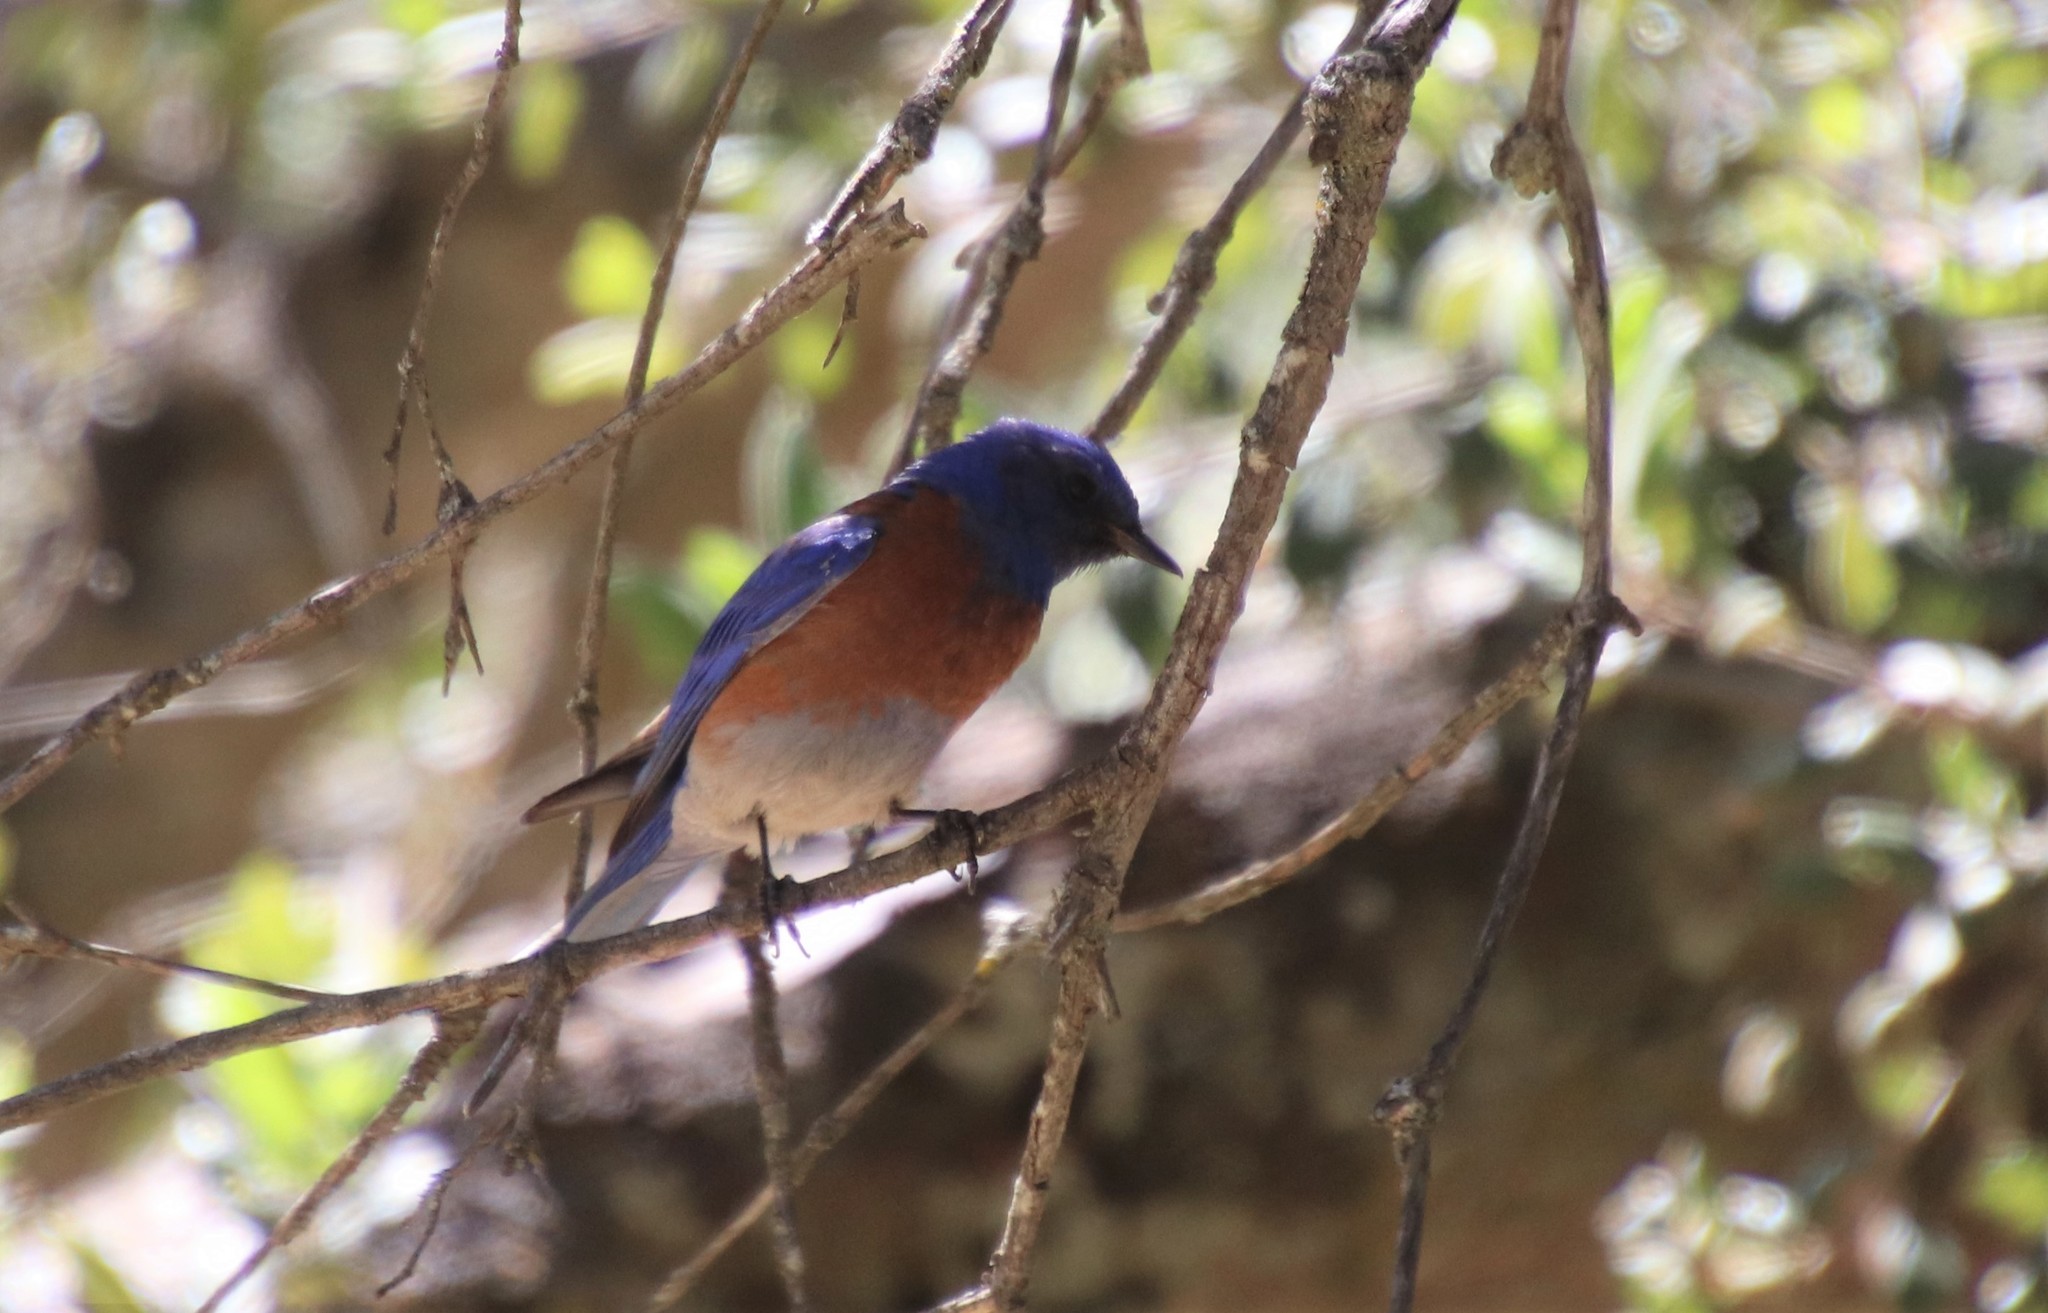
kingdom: Animalia
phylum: Chordata
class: Aves
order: Passeriformes
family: Turdidae
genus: Sialia
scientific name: Sialia mexicana
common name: Western bluebird
